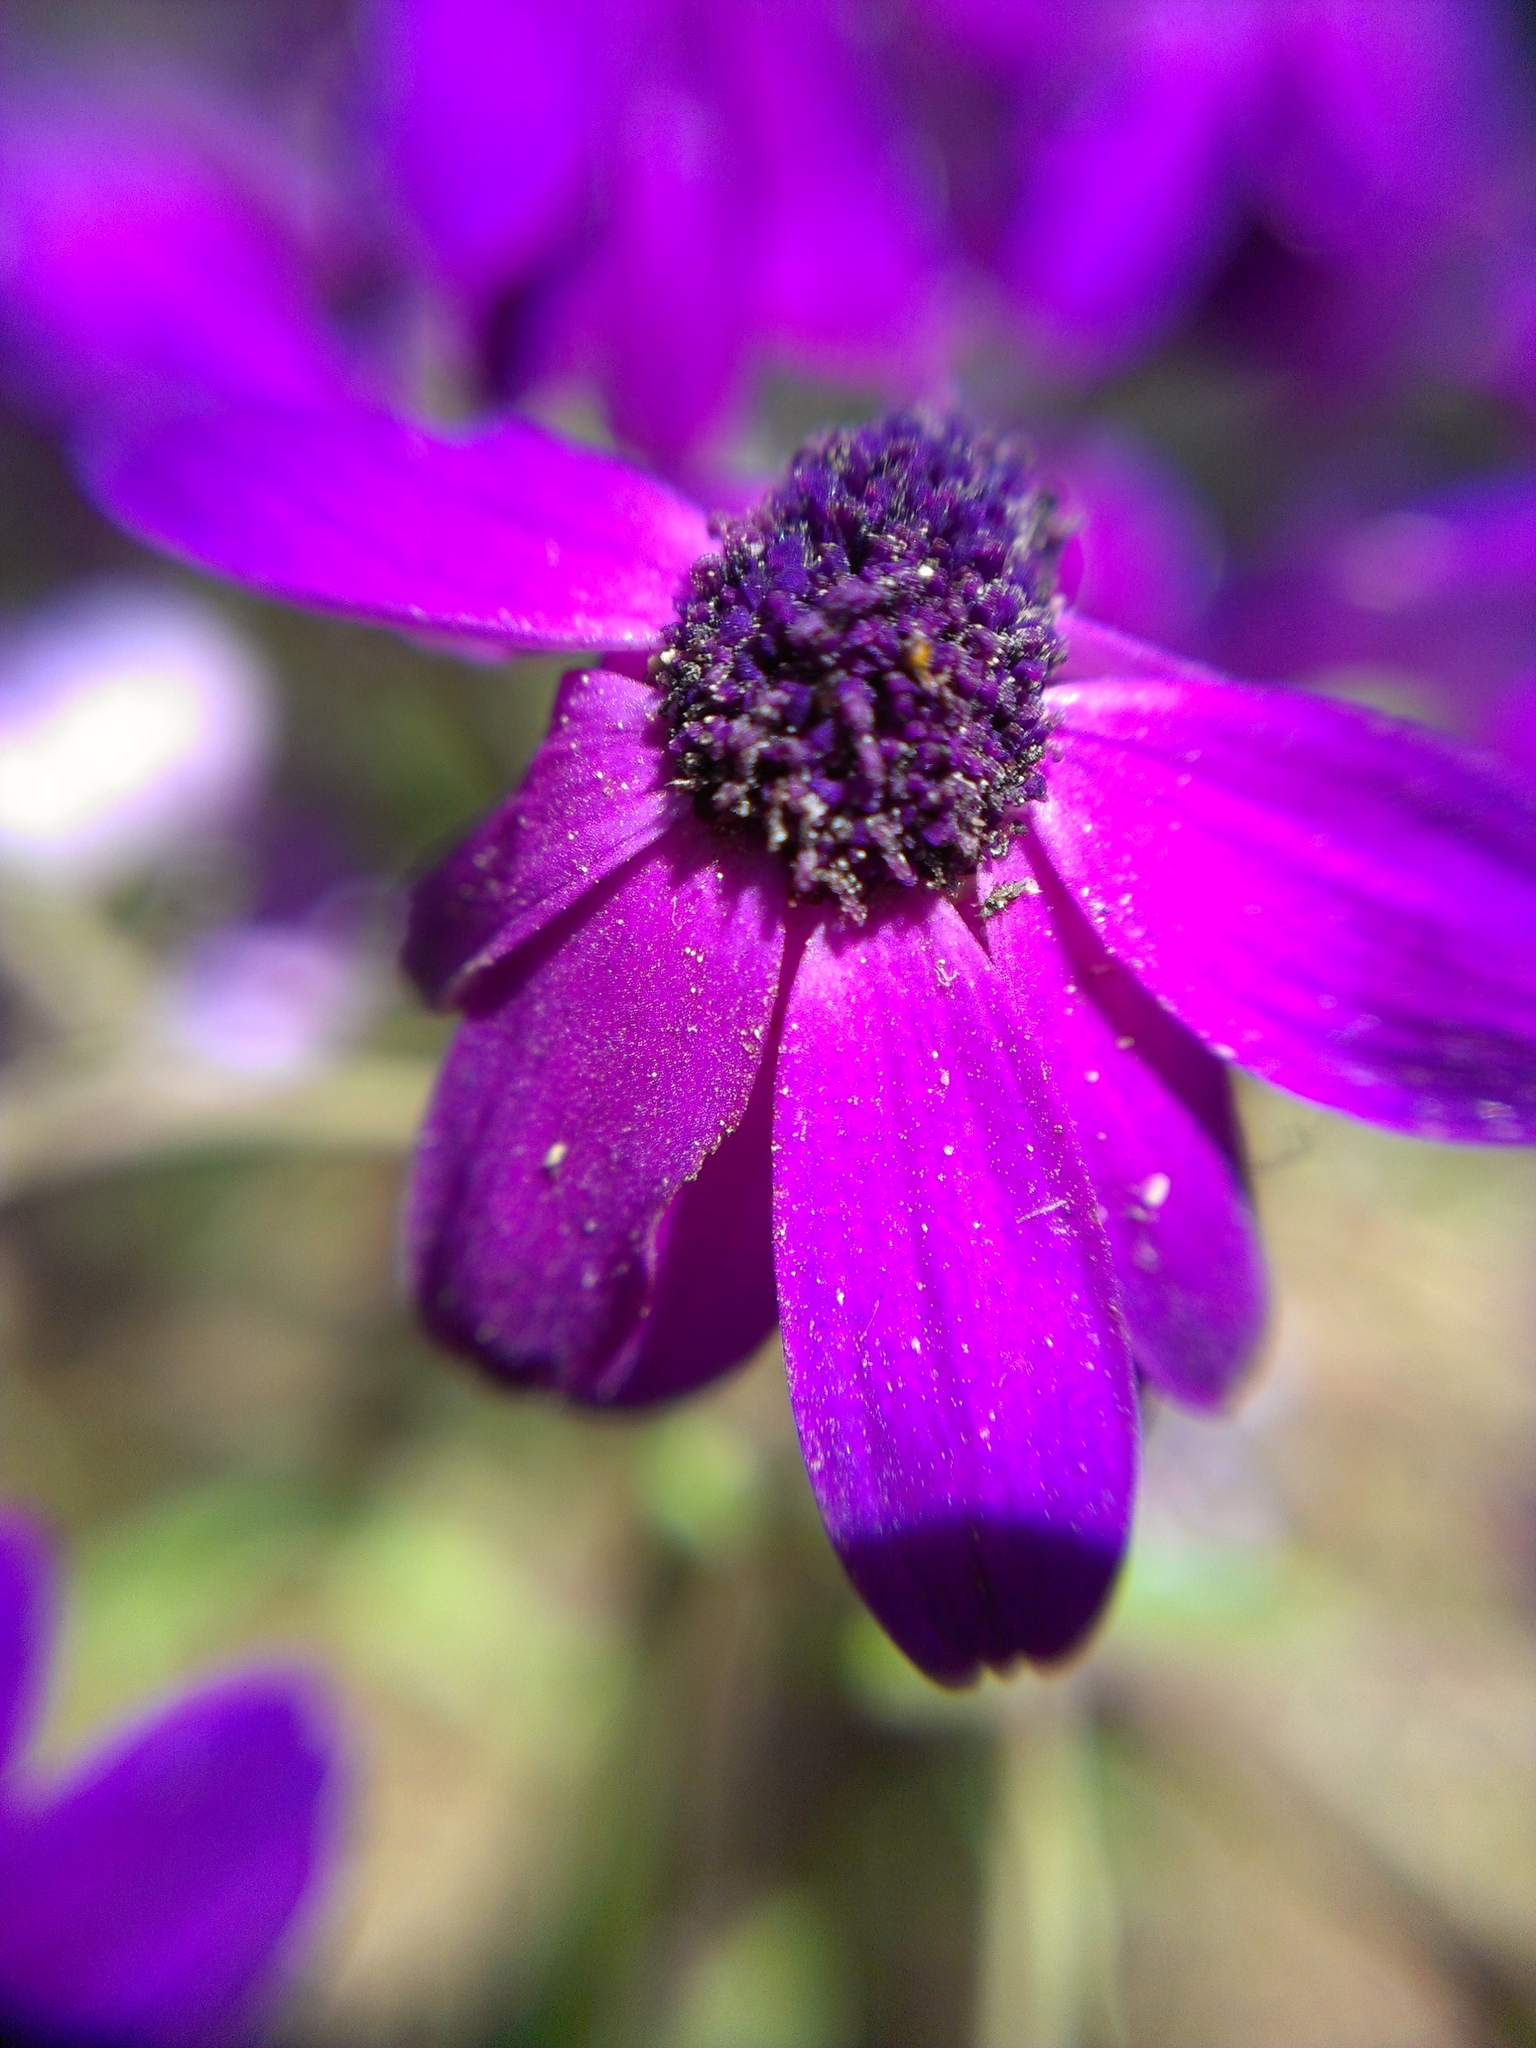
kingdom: Plantae
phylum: Tracheophyta
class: Magnoliopsida
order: Asterales
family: Asteraceae
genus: Pericallis
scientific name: Pericallis hybrida
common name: Cineraria
